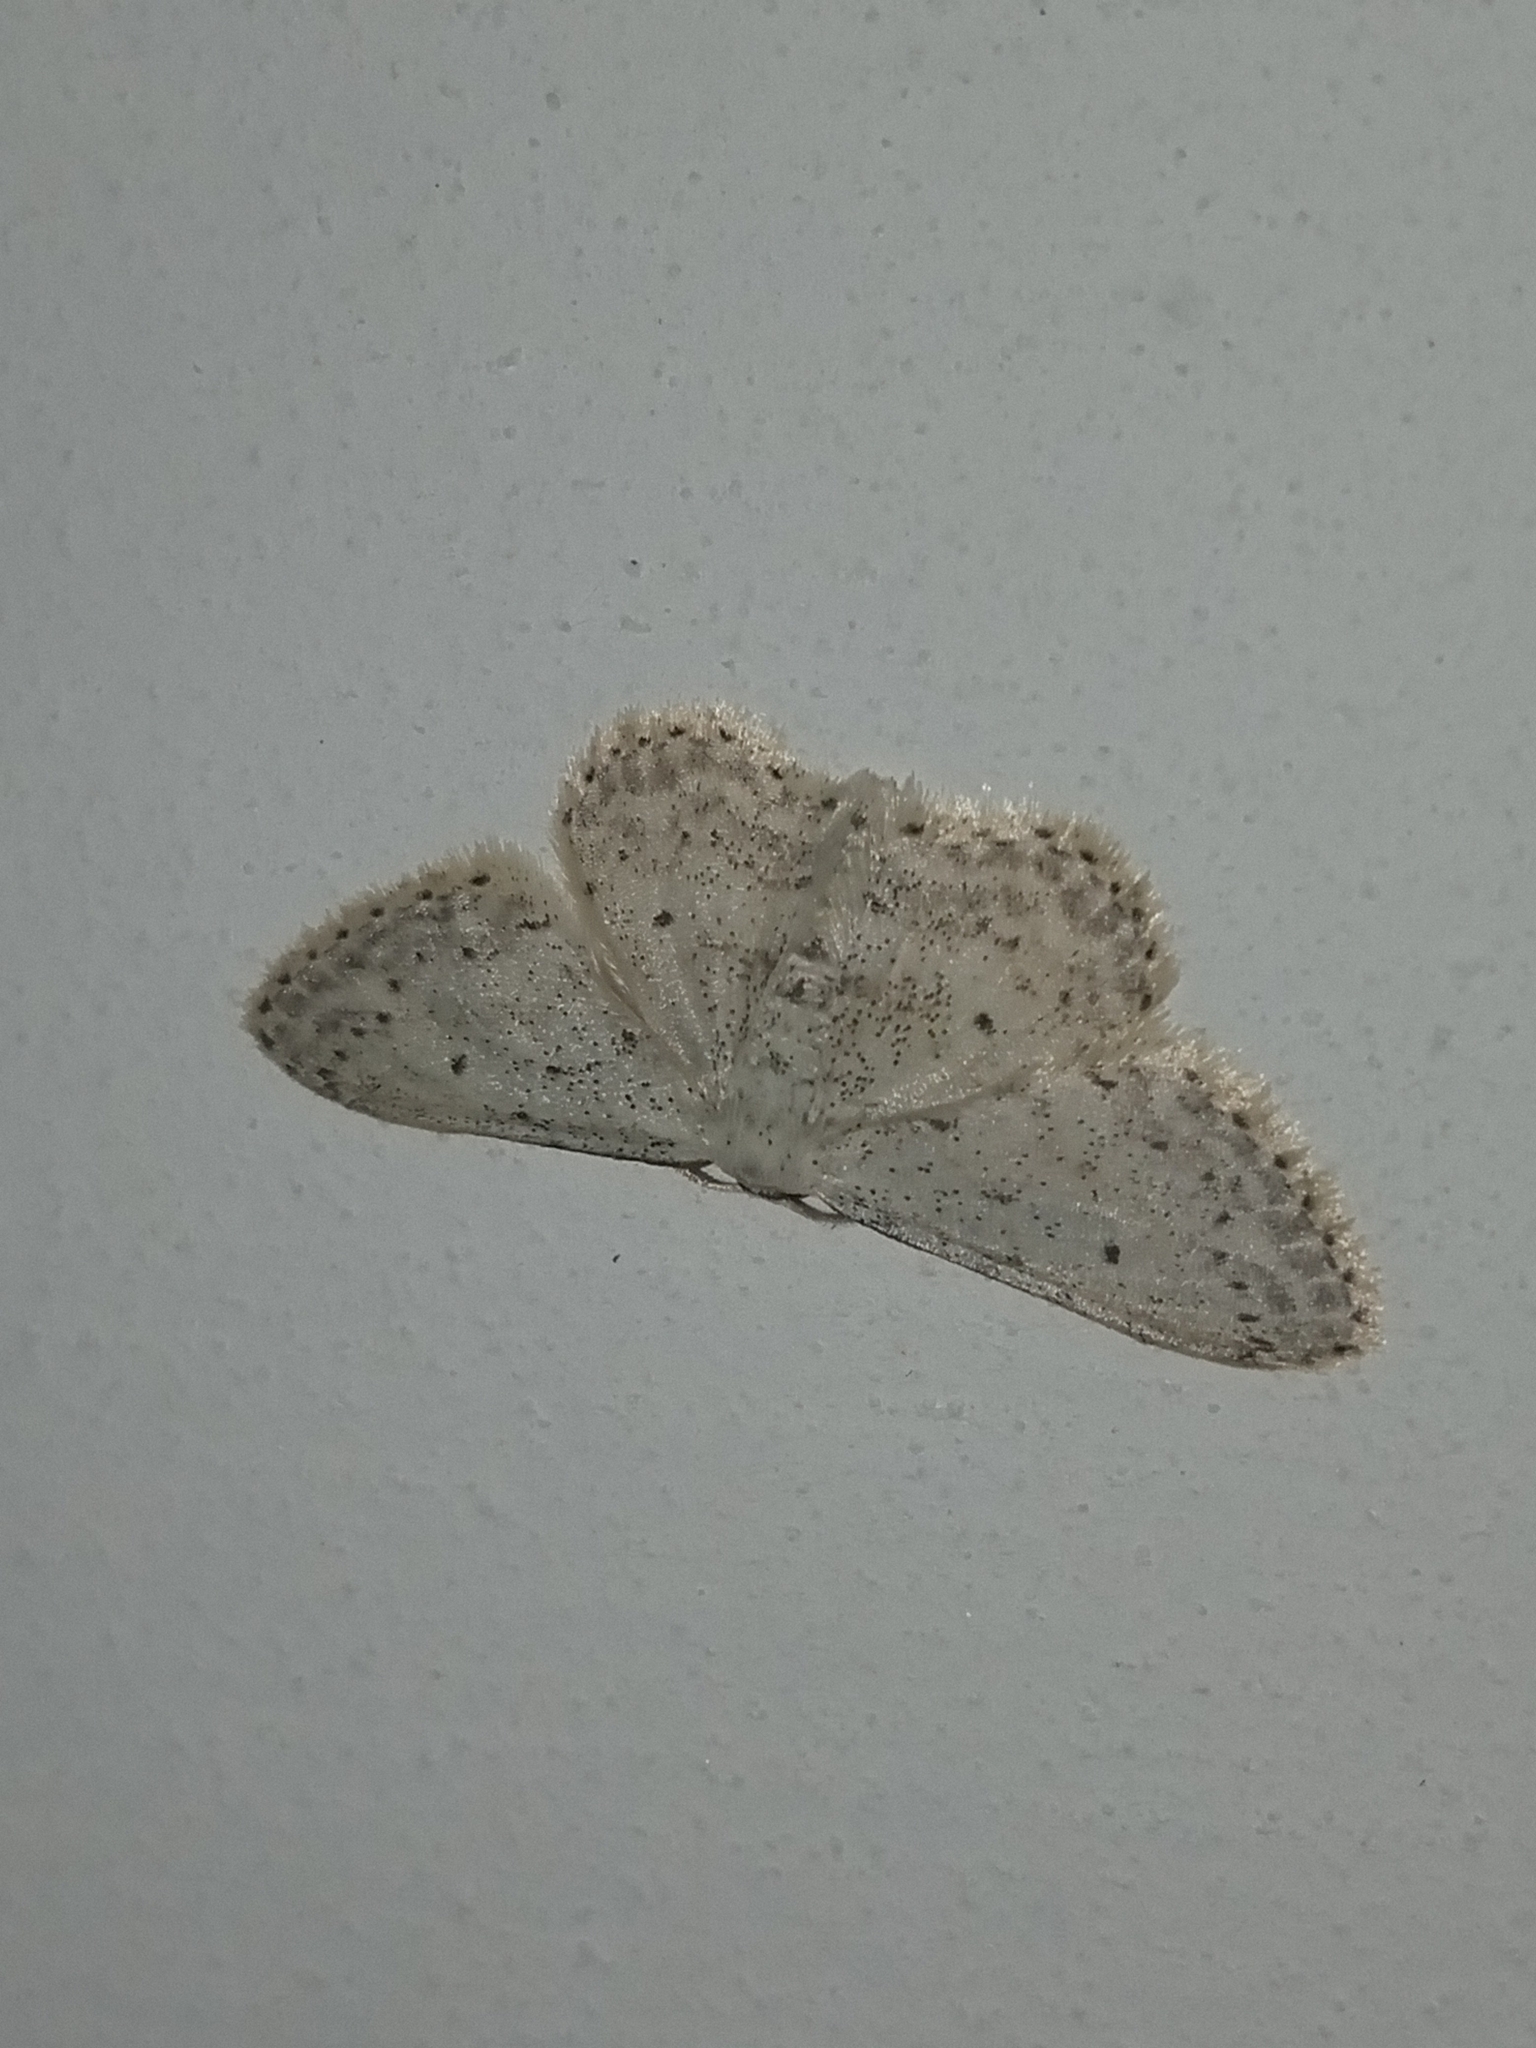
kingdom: Animalia
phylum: Arthropoda
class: Insecta
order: Lepidoptera
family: Geometridae
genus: Idaea
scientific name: Idaea seriata
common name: Small dusty wave
